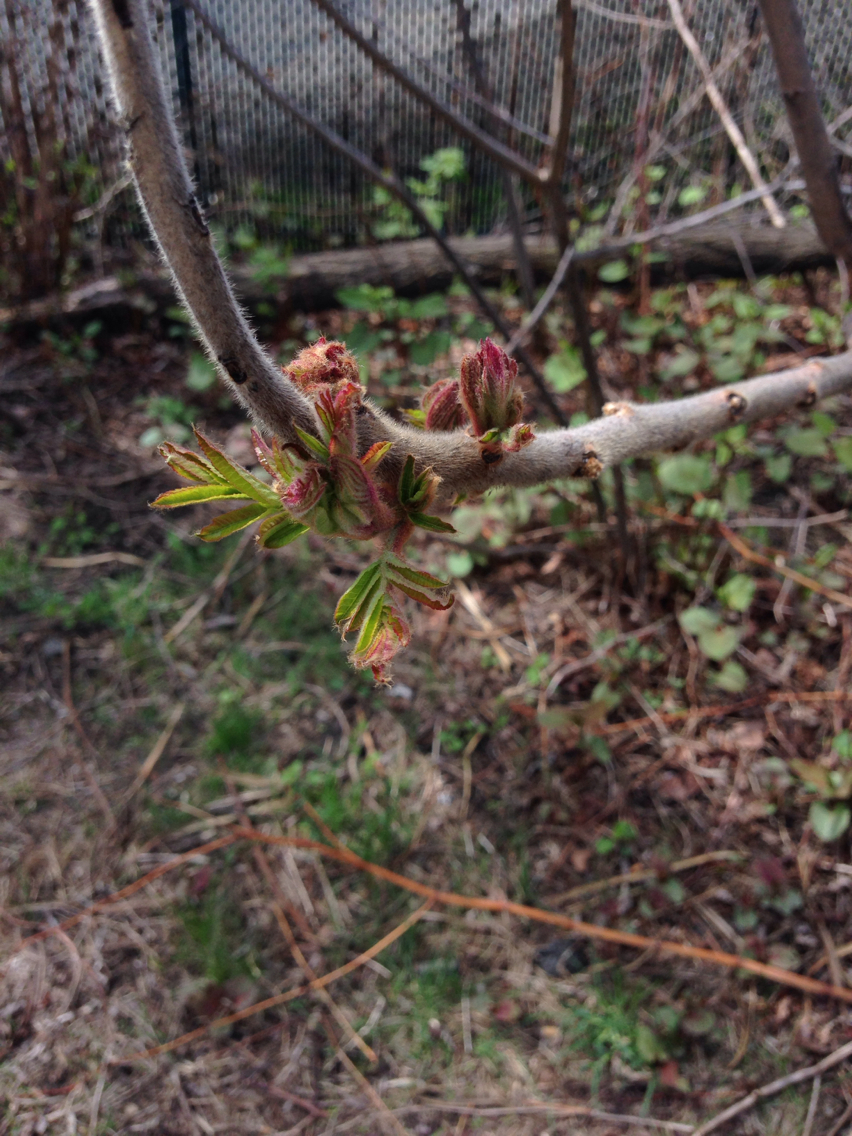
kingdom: Plantae
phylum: Tracheophyta
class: Magnoliopsida
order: Sapindales
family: Anacardiaceae
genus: Rhus
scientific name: Rhus typhina
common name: Staghorn sumac
